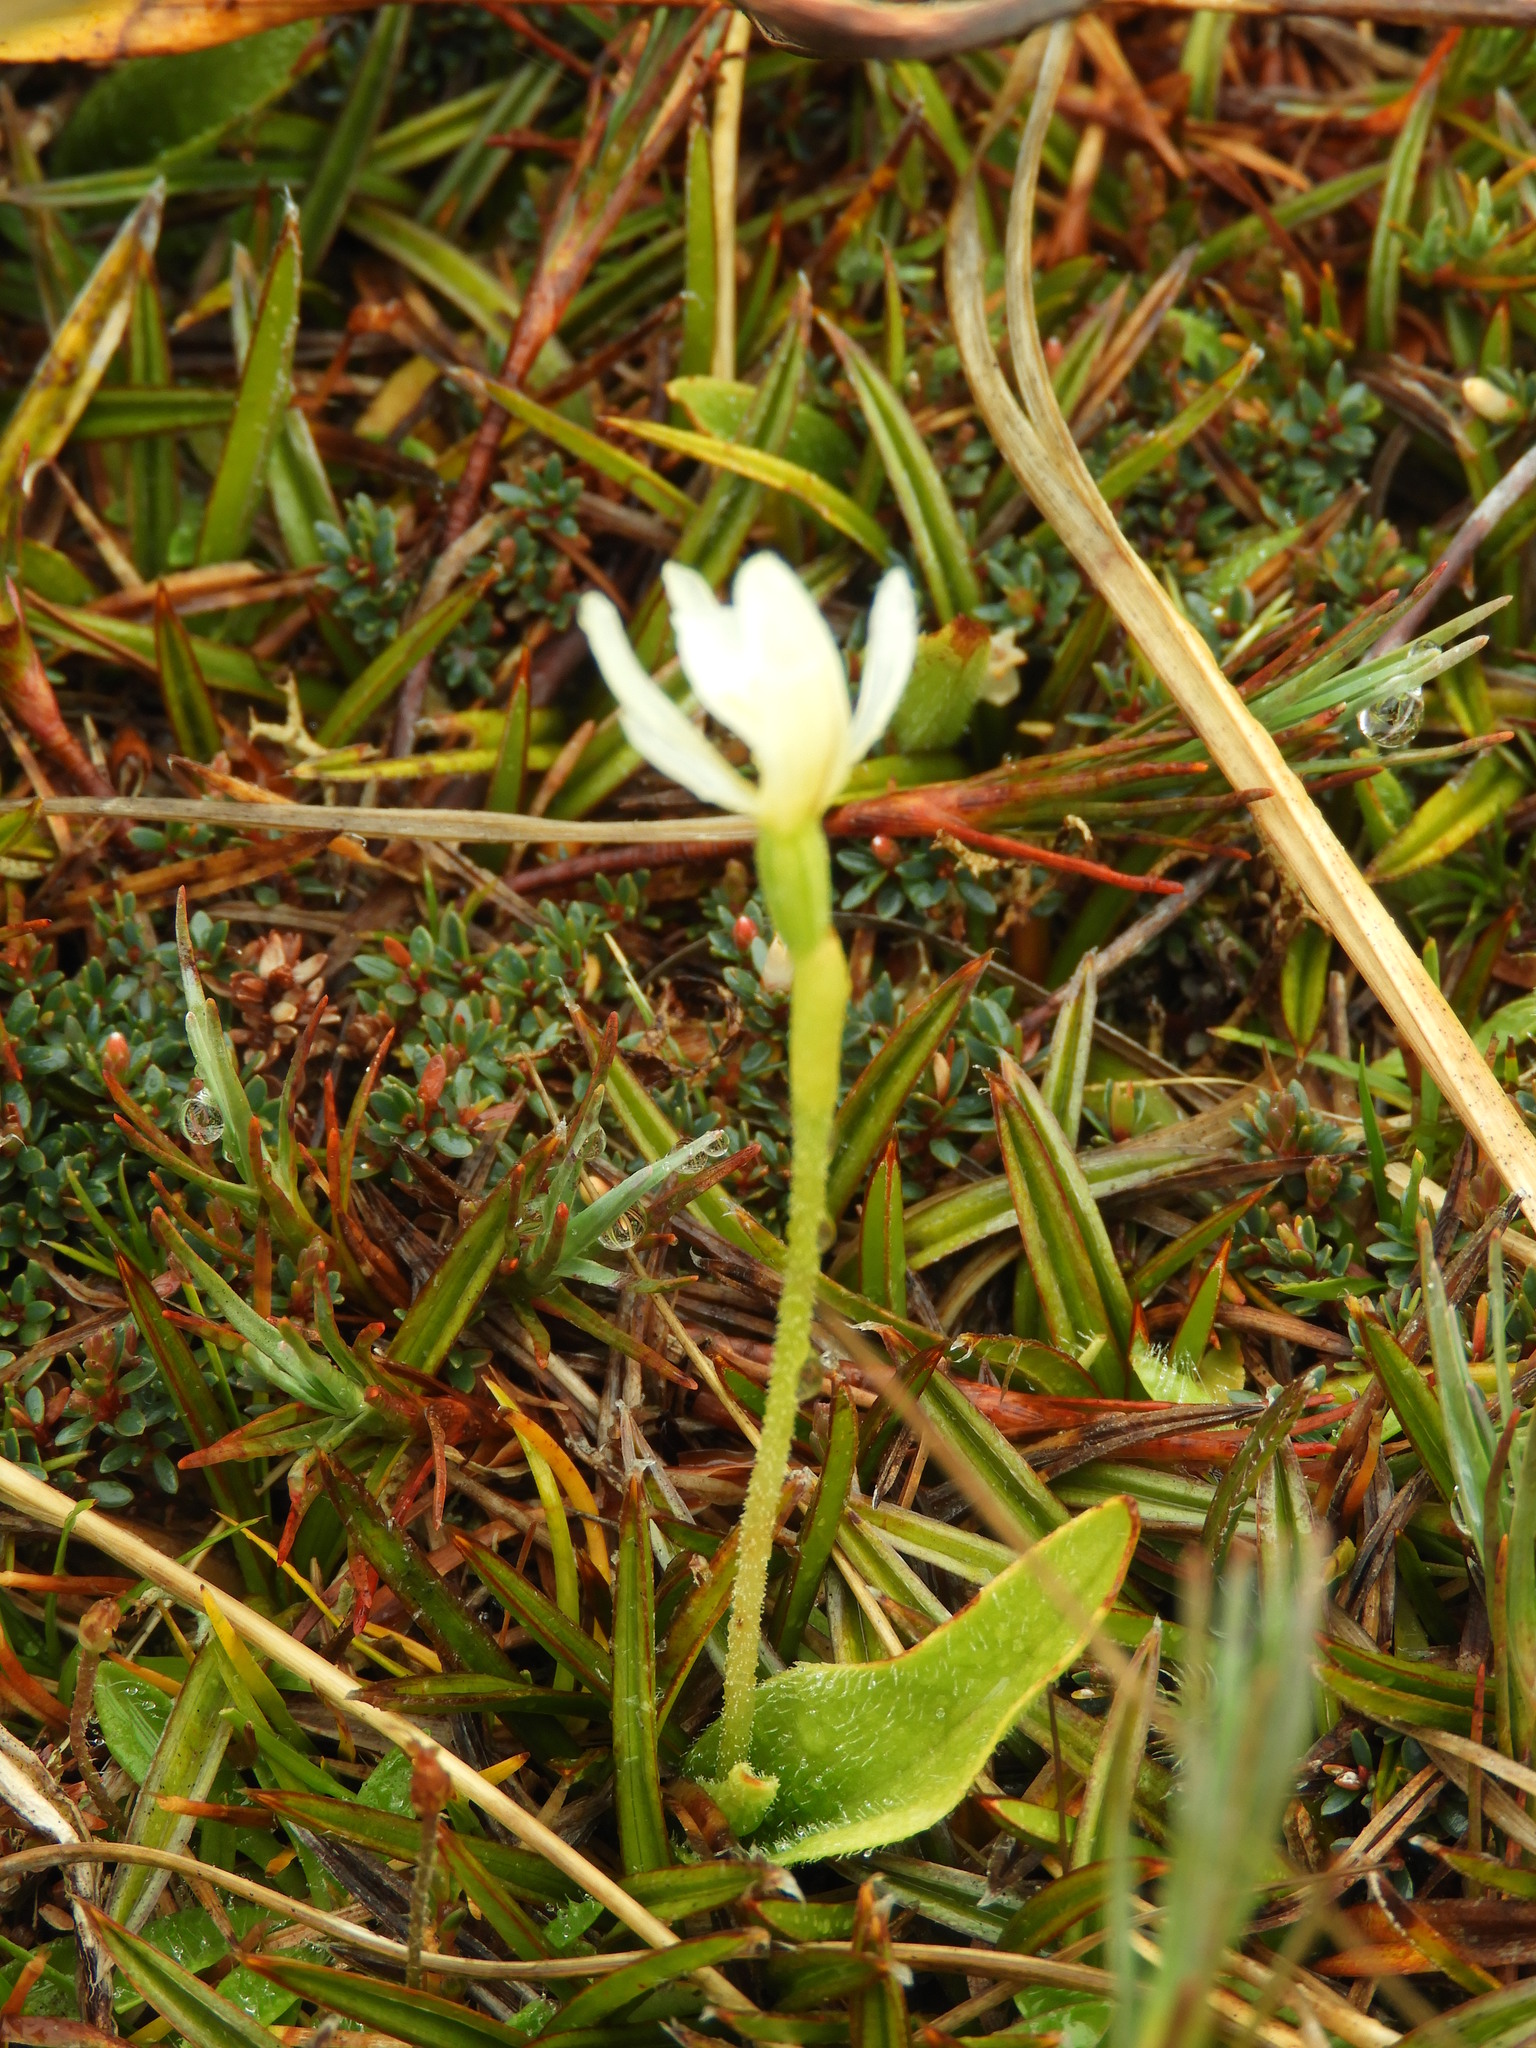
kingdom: Plantae
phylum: Tracheophyta
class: Liliopsida
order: Asparagales
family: Orchidaceae
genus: Aporostylis
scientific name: Aporostylis bifolia
